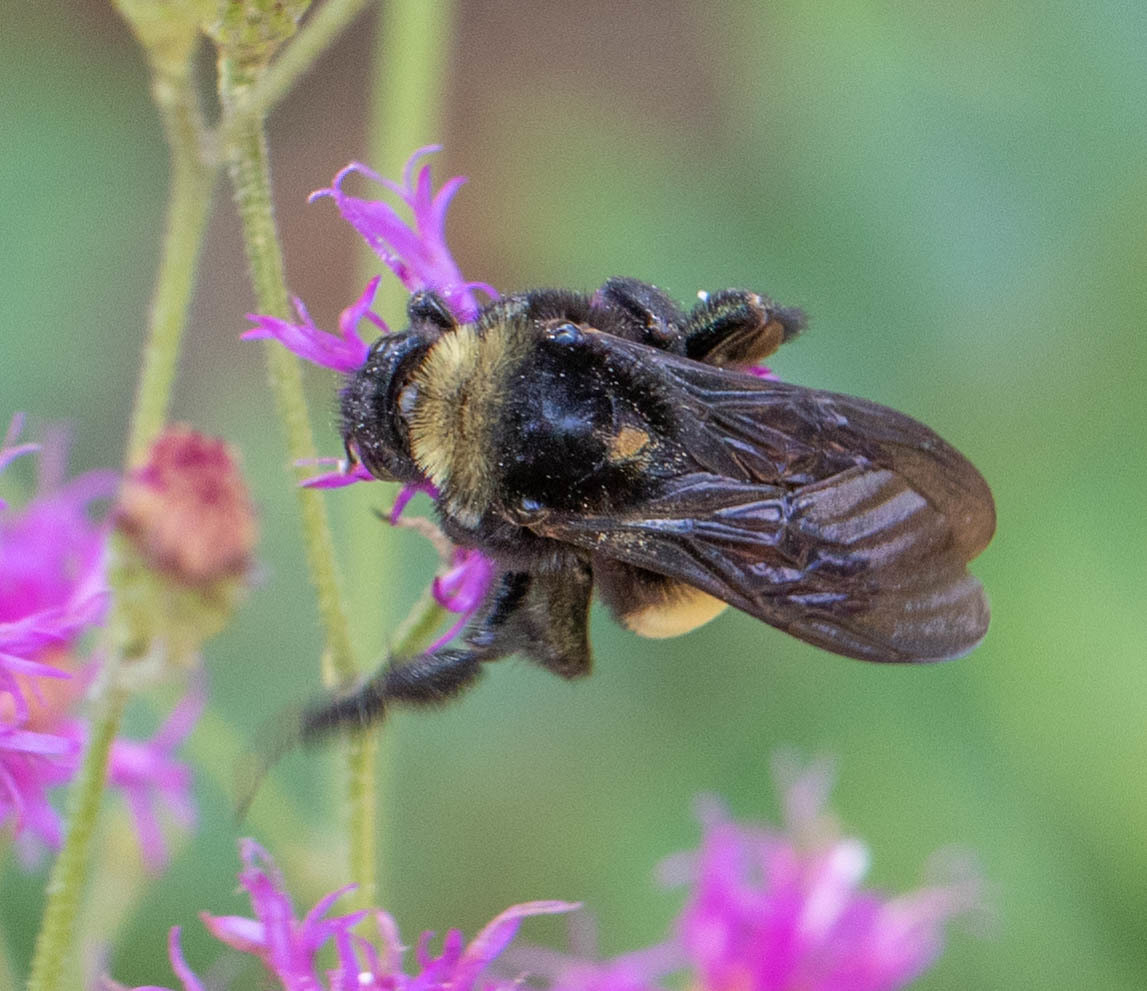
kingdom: Animalia
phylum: Arthropoda
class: Insecta
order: Hymenoptera
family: Apidae
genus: Bombus
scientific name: Bombus pensylvanicus
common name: Bumble bee
